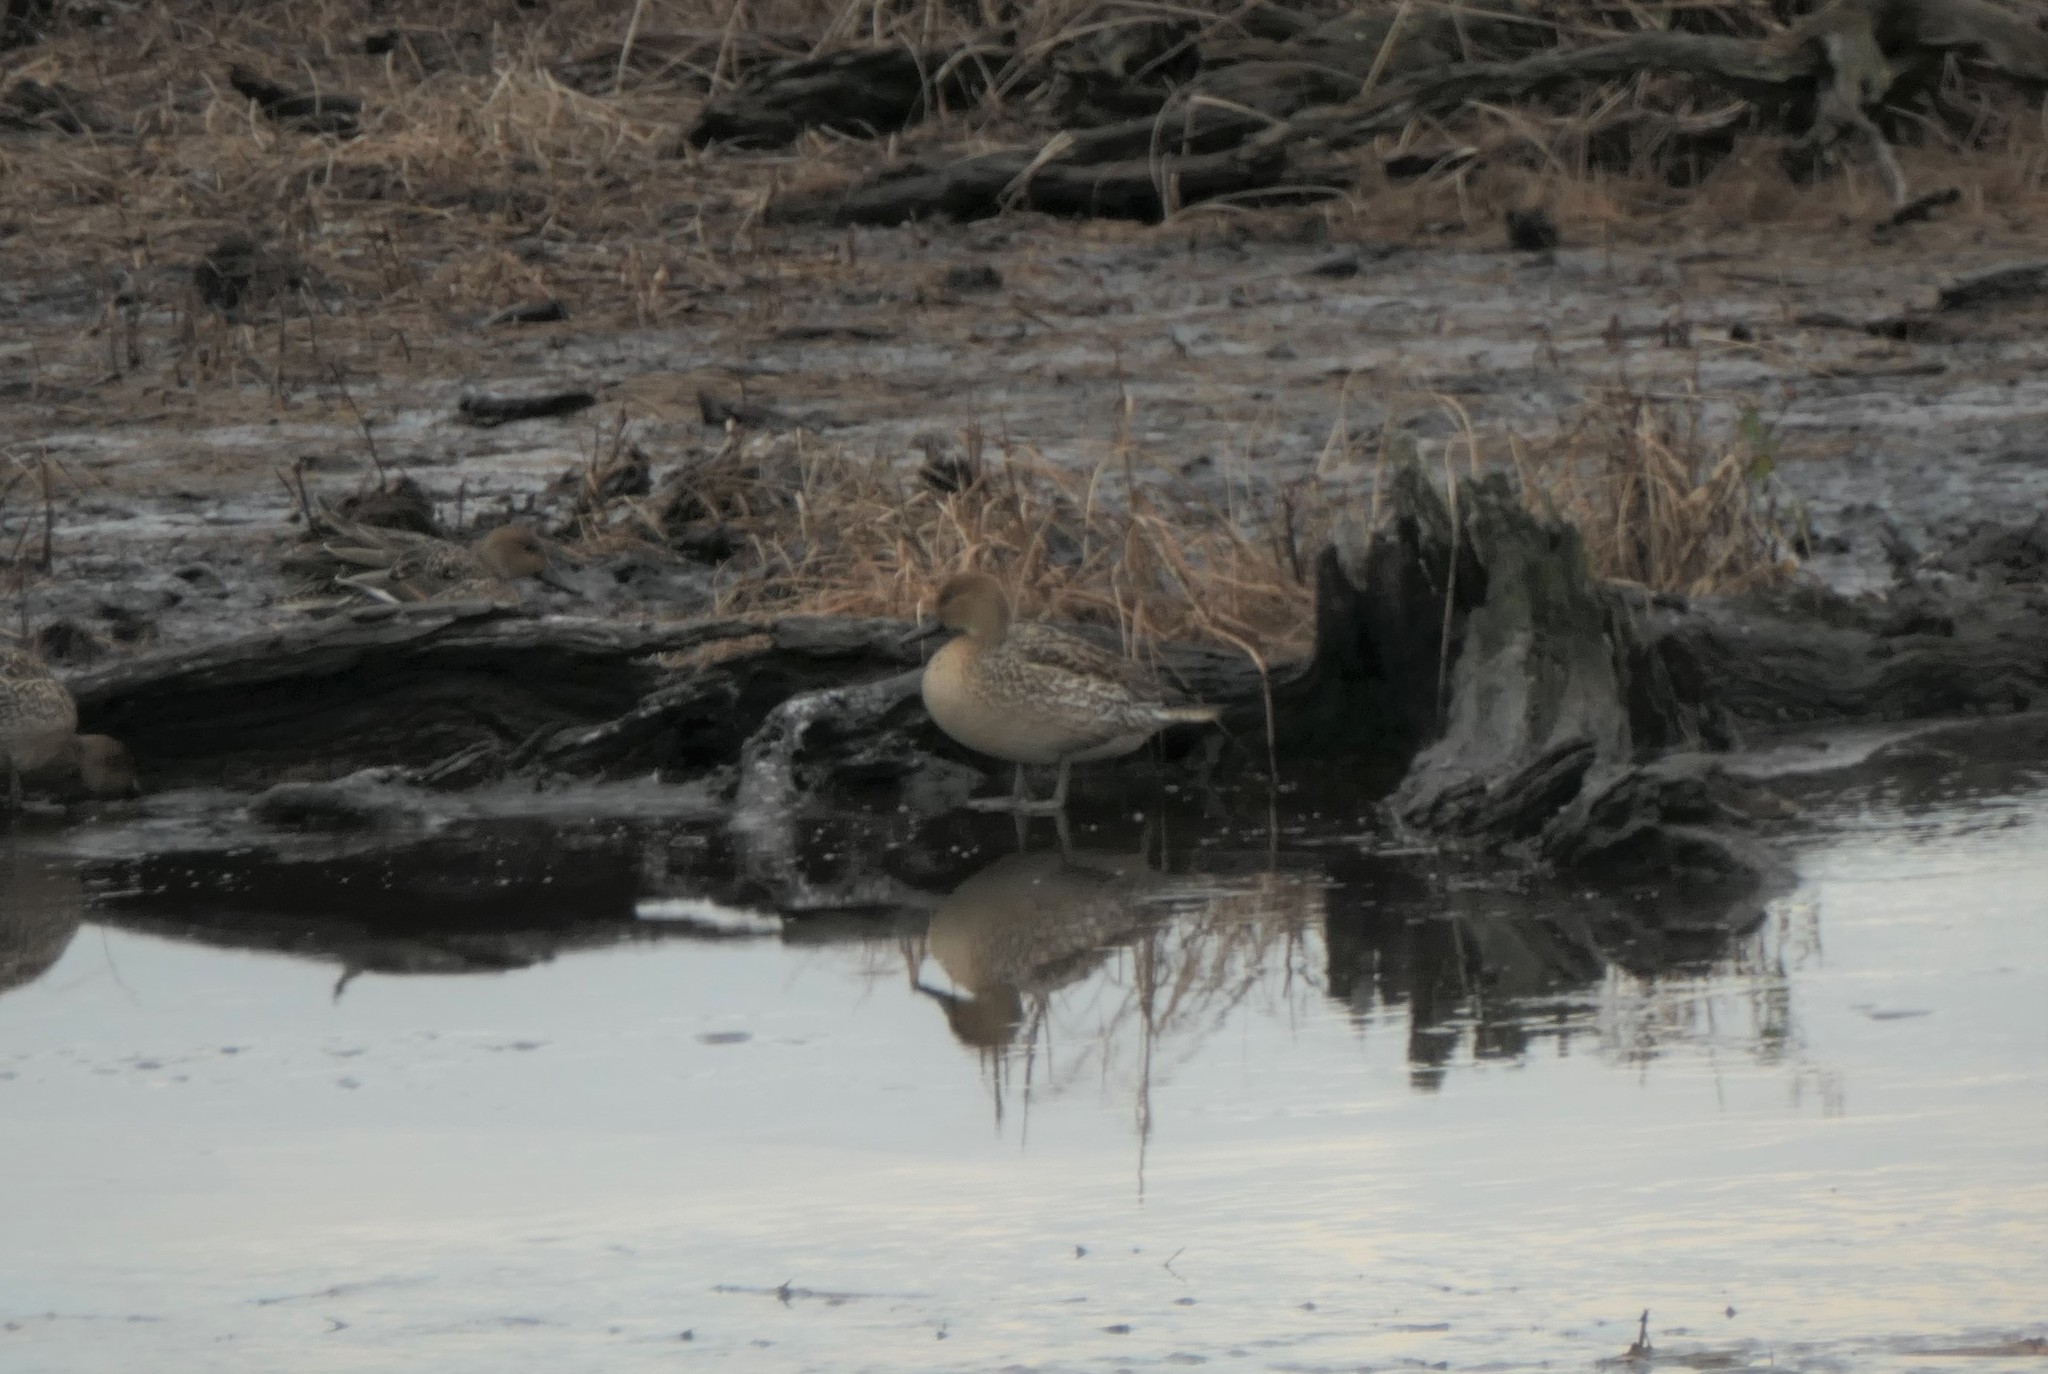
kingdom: Animalia
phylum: Chordata
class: Aves
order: Anseriformes
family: Anatidae
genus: Anas
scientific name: Anas acuta
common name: Northern pintail
